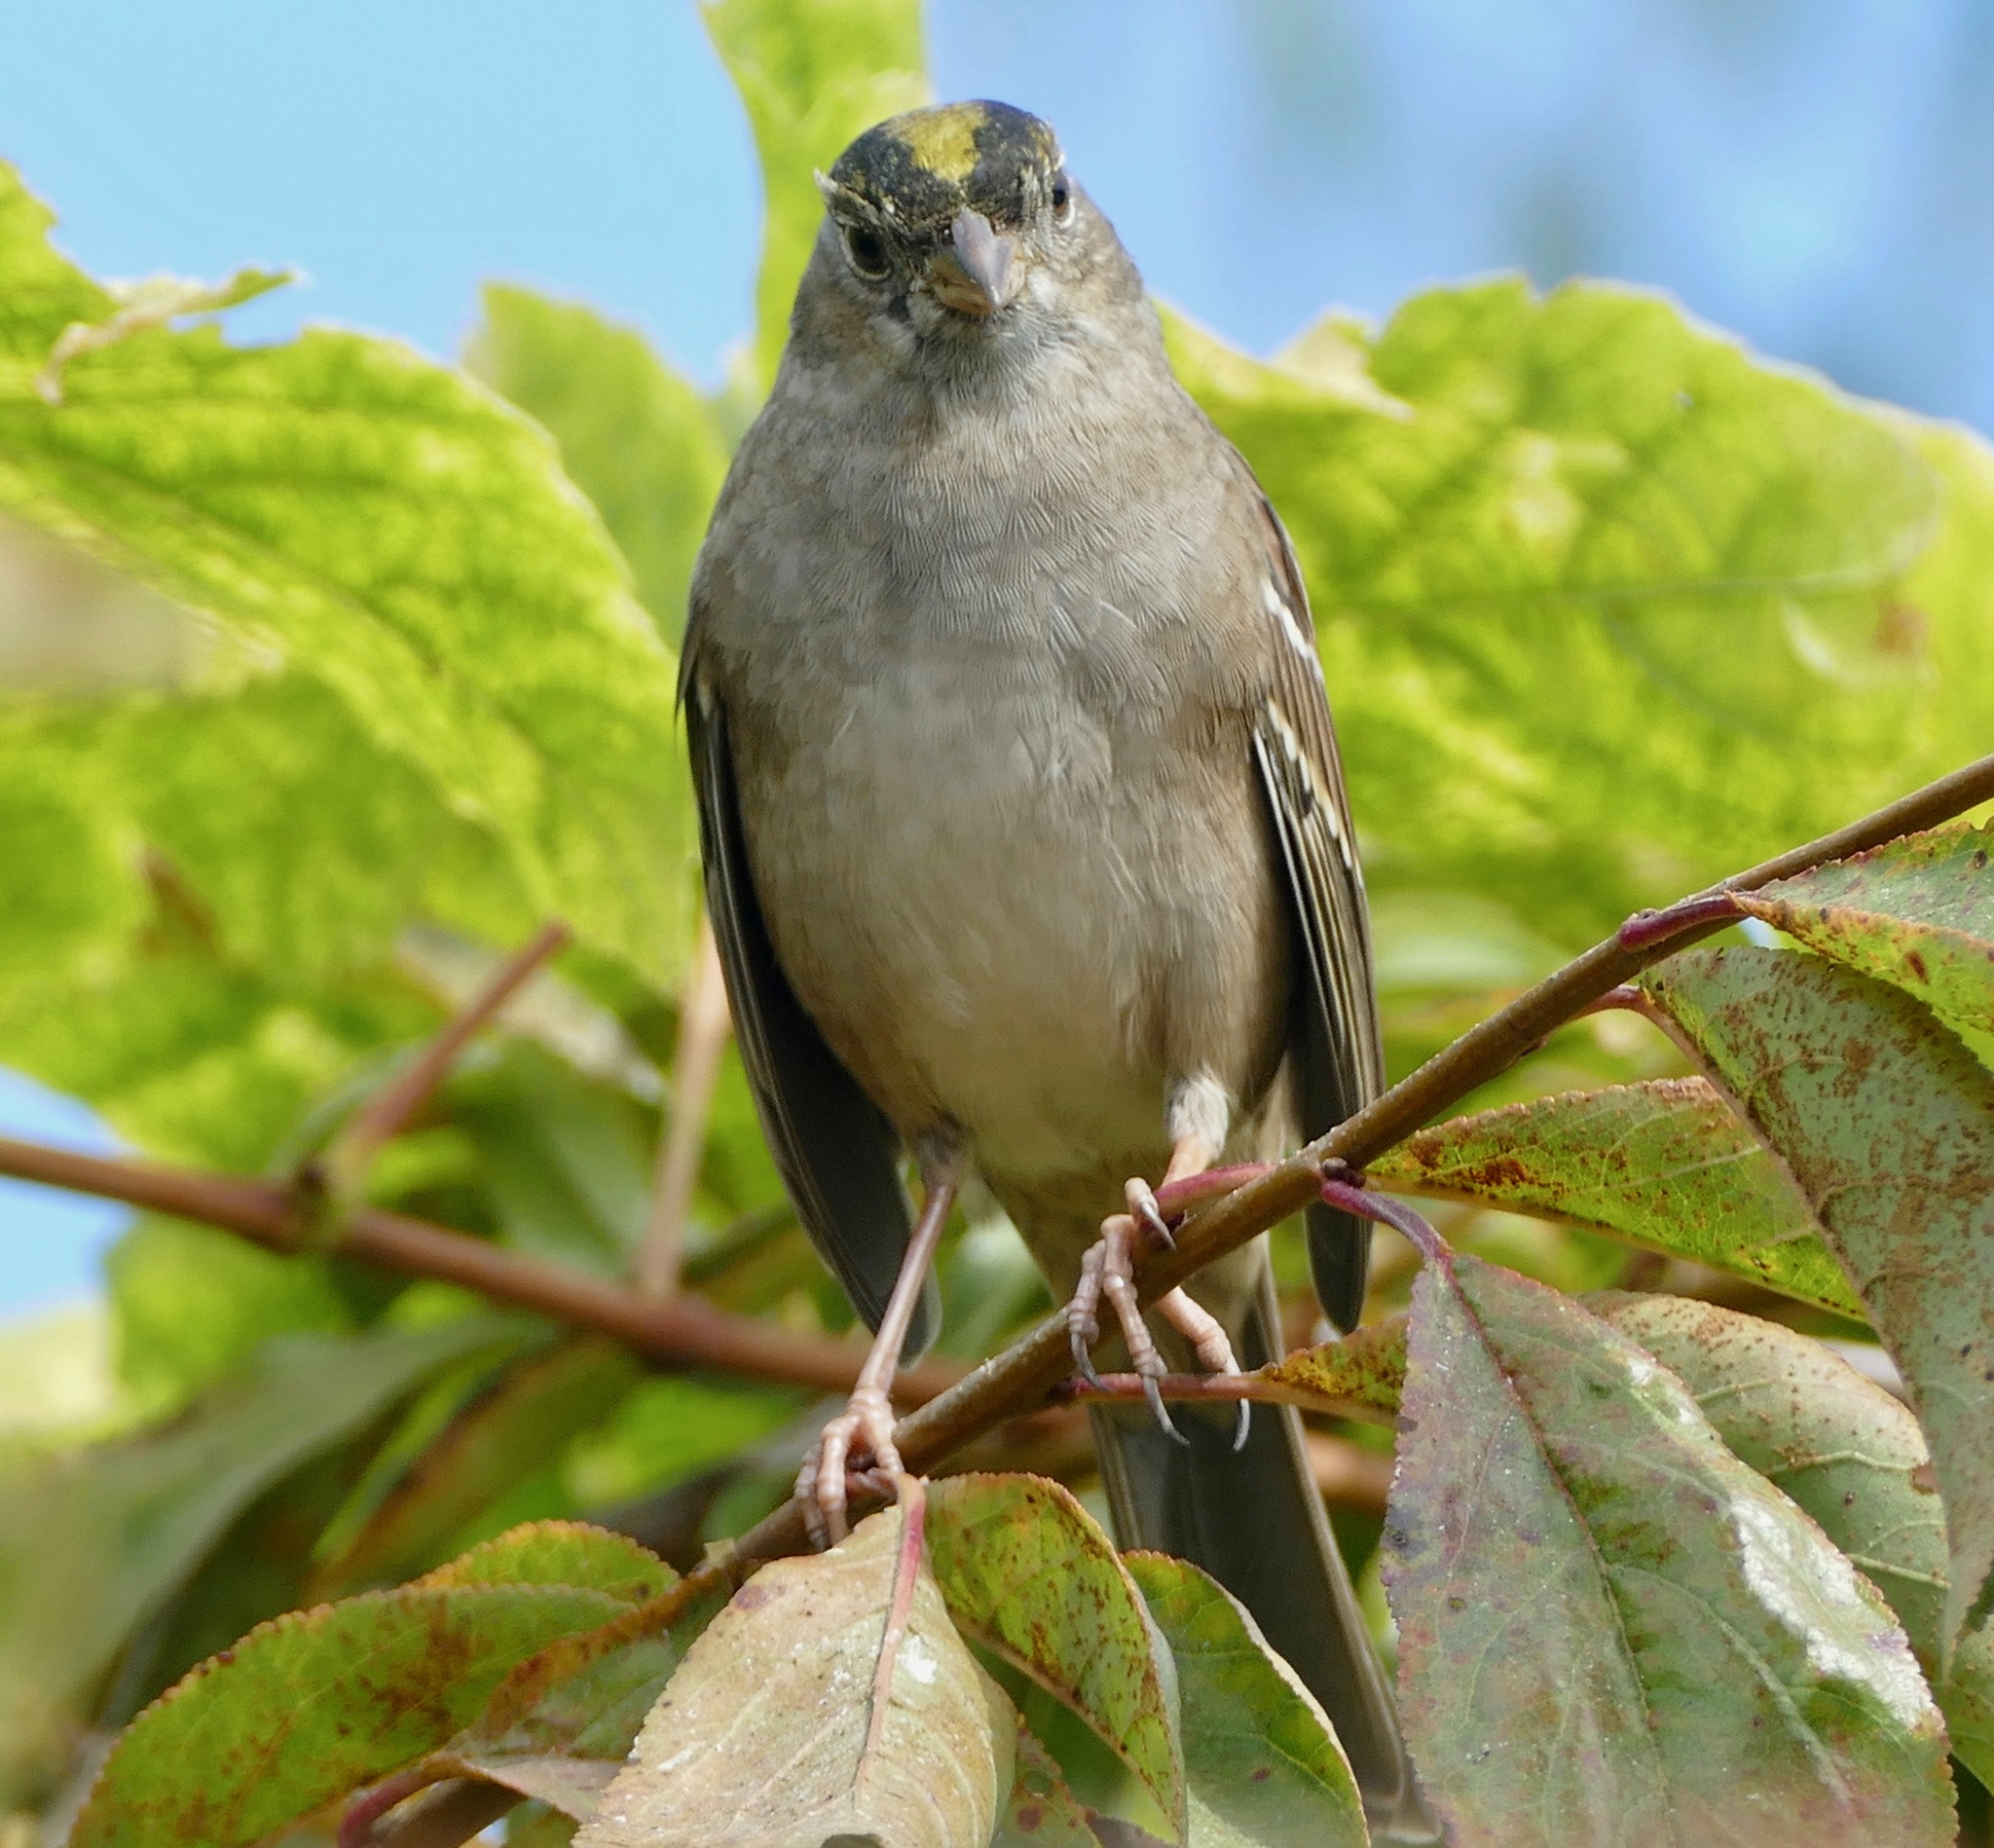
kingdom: Animalia
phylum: Chordata
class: Aves
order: Passeriformes
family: Passerellidae
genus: Zonotrichia
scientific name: Zonotrichia atricapilla
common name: Golden-crowned sparrow
